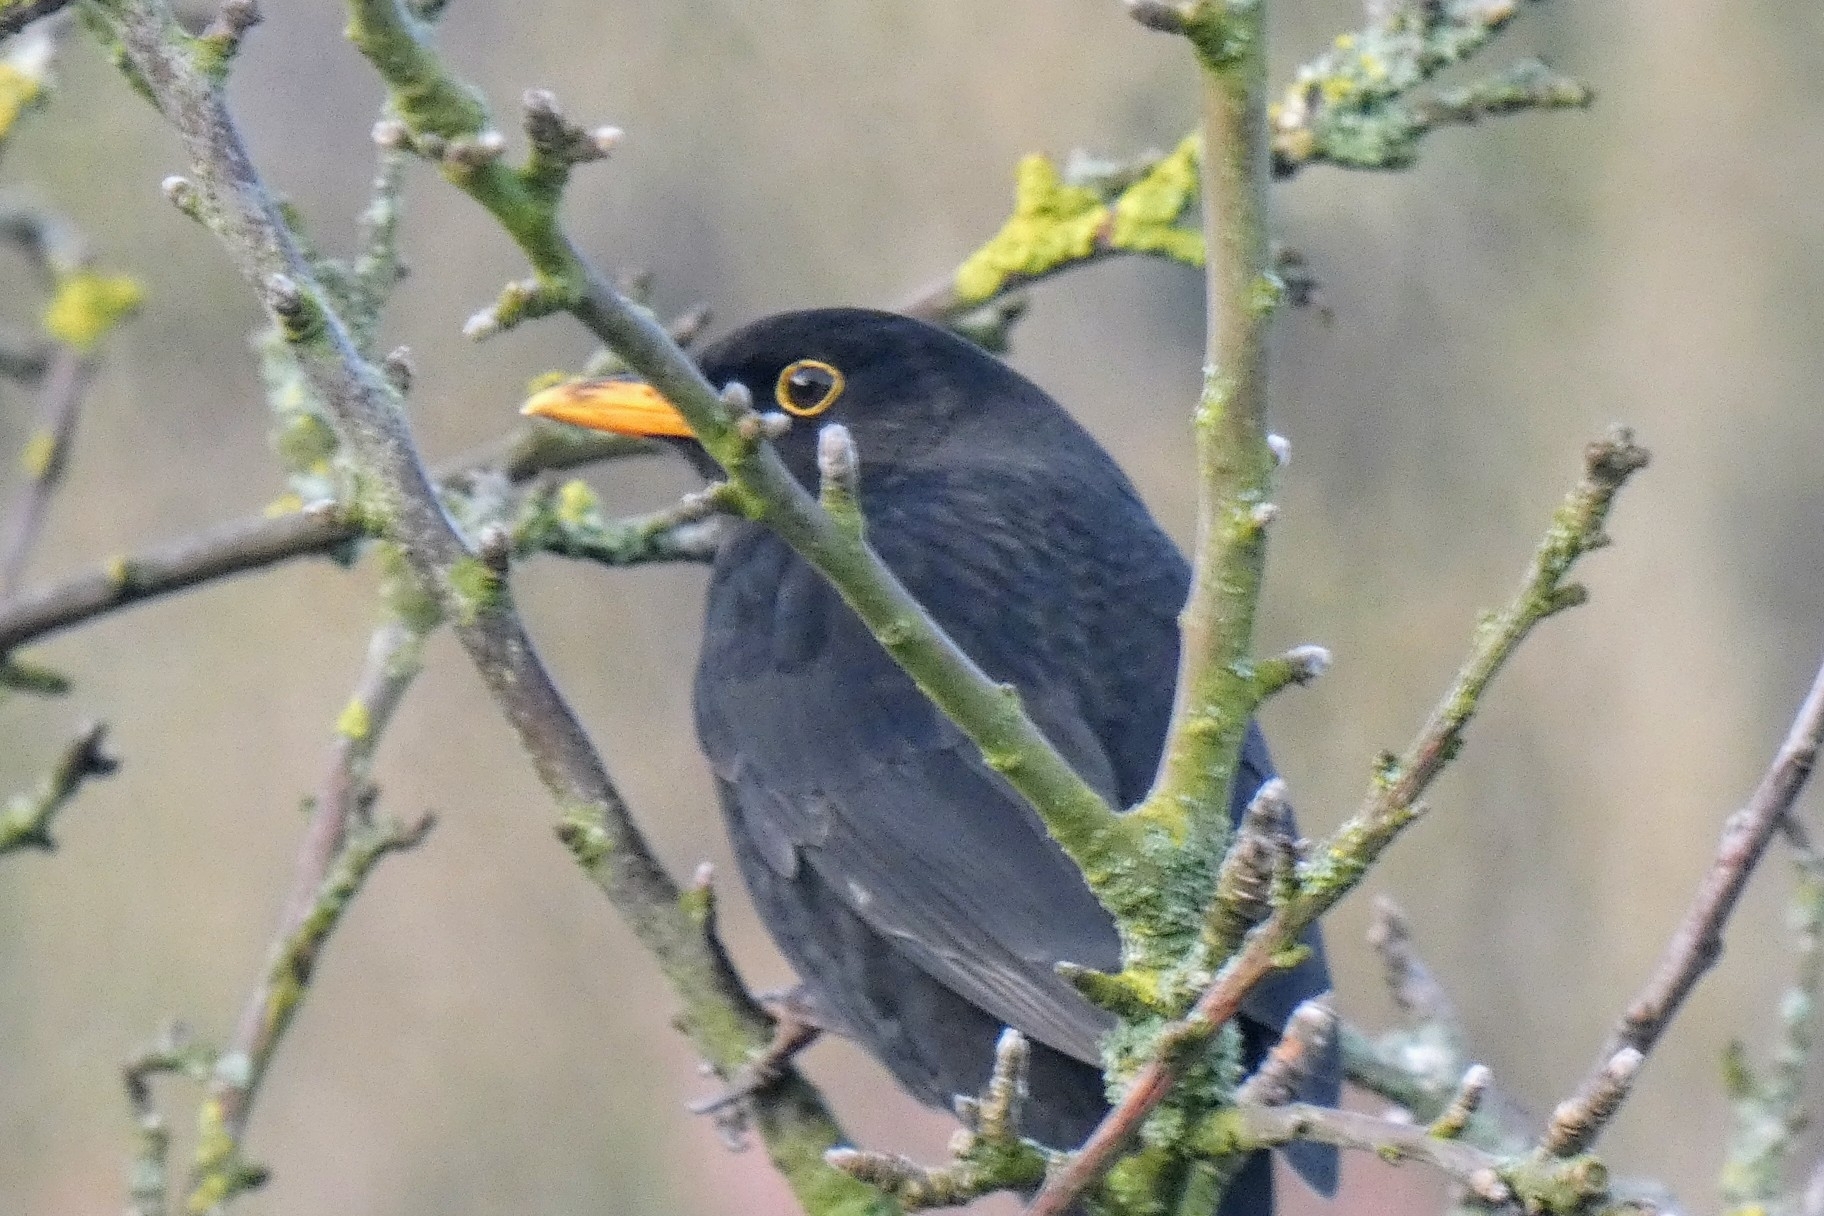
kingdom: Animalia
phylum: Chordata
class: Aves
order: Passeriformes
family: Turdidae
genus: Turdus
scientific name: Turdus merula
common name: Common blackbird
